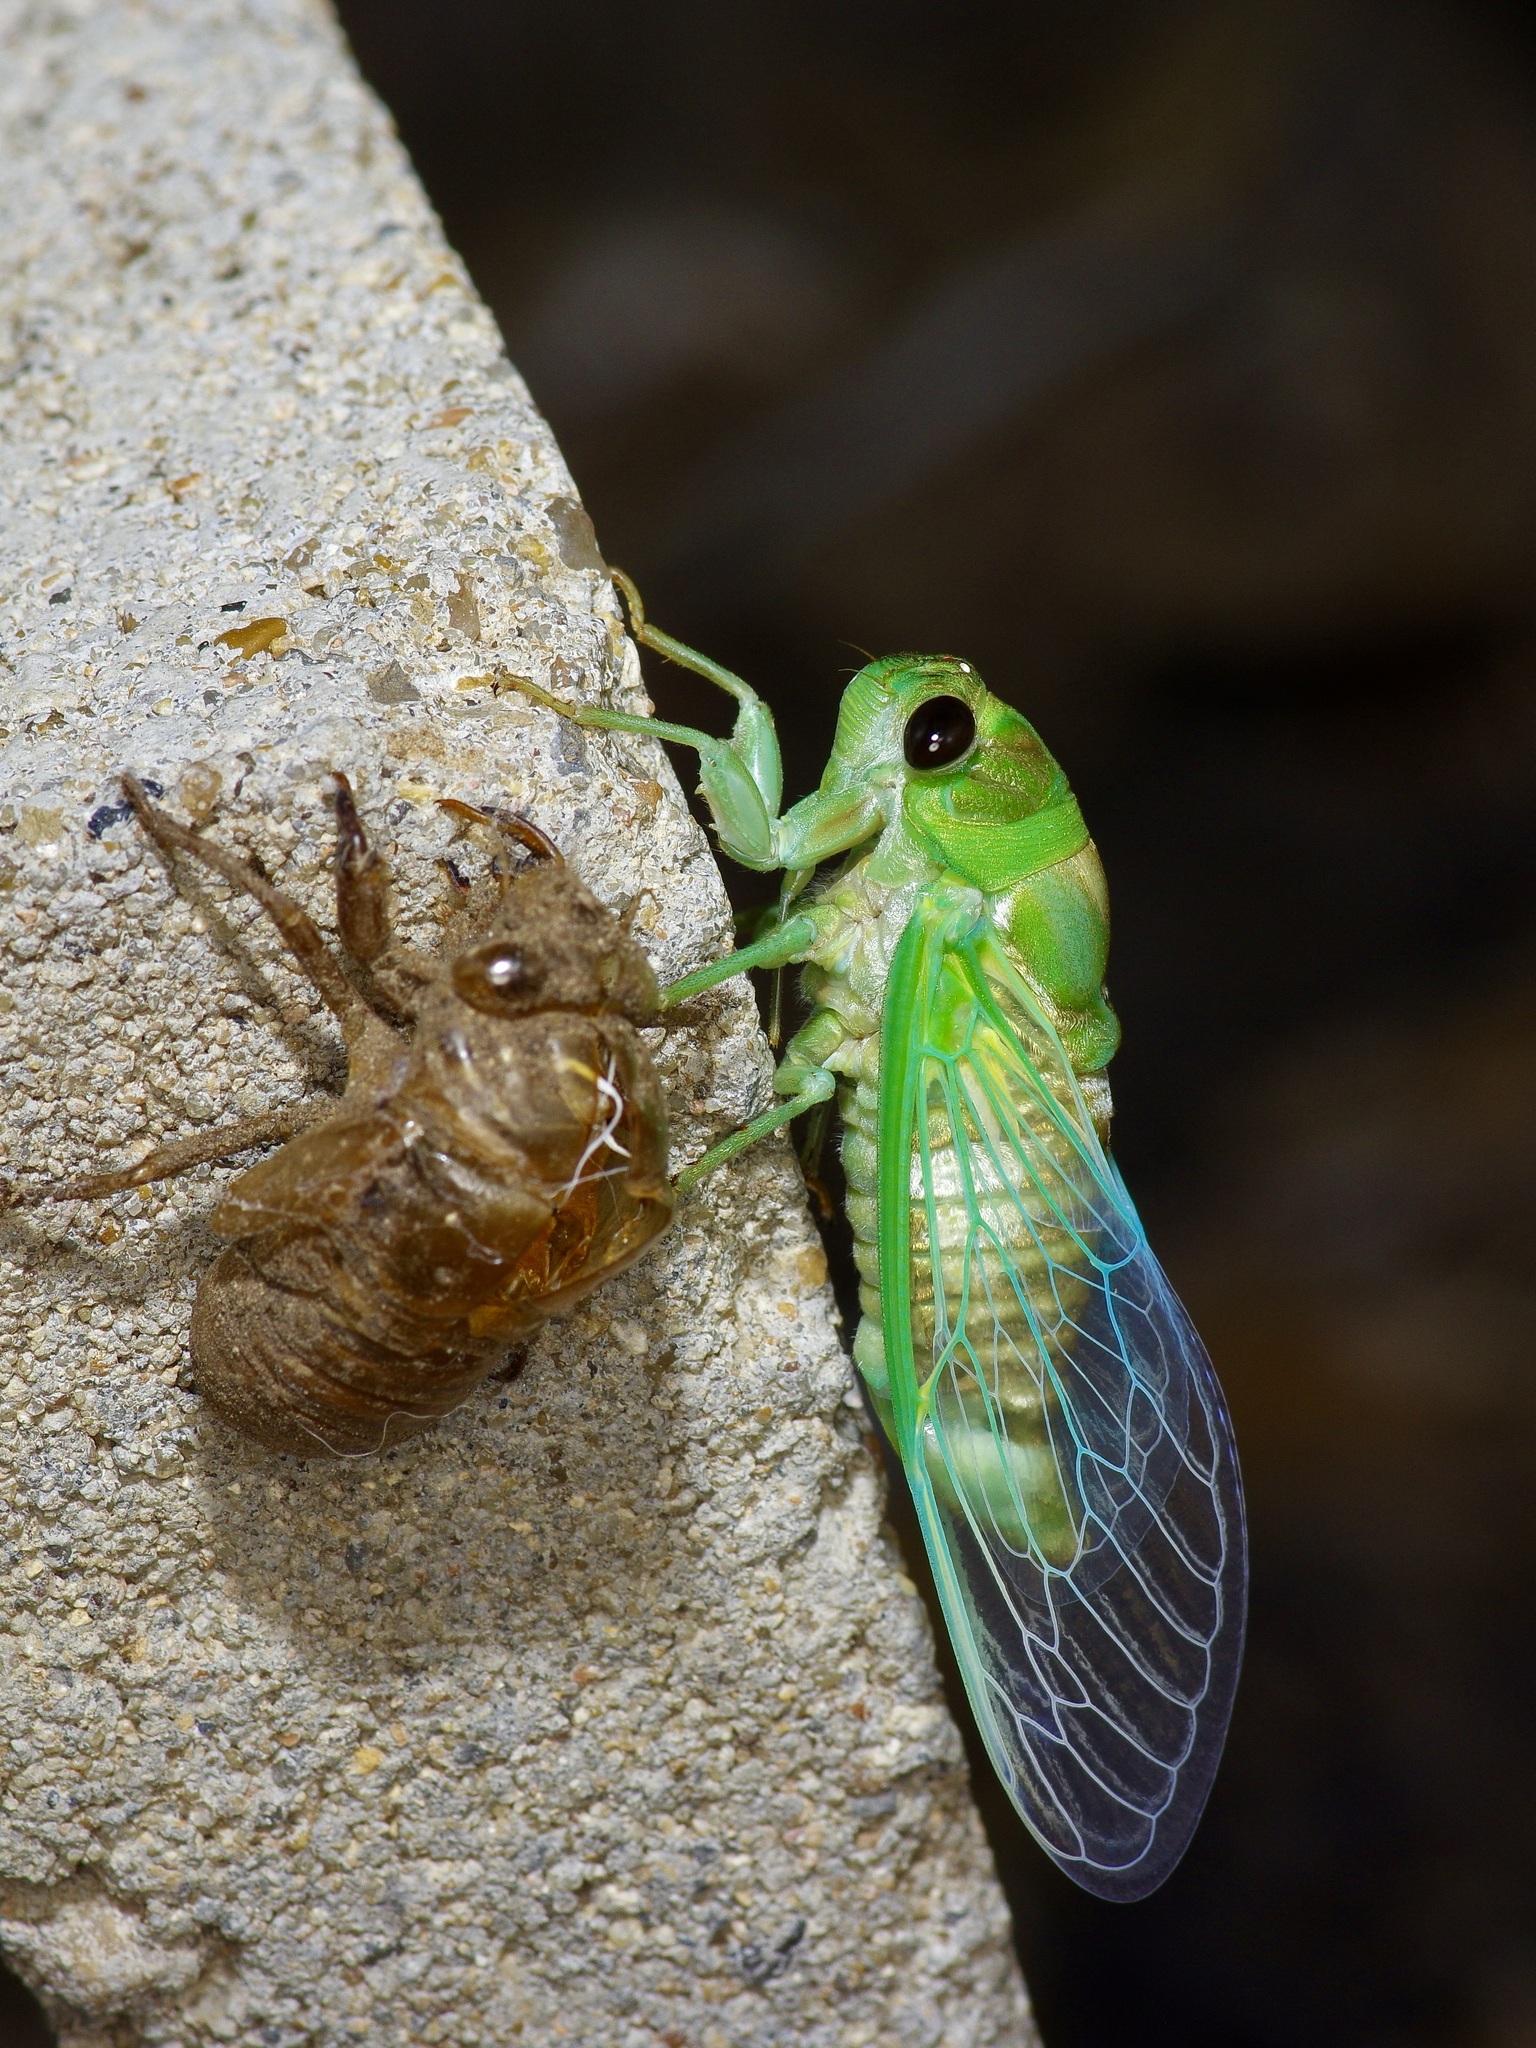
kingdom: Animalia
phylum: Arthropoda
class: Insecta
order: Hemiptera
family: Cicadidae
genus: Neotibicen
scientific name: Neotibicen superbus
